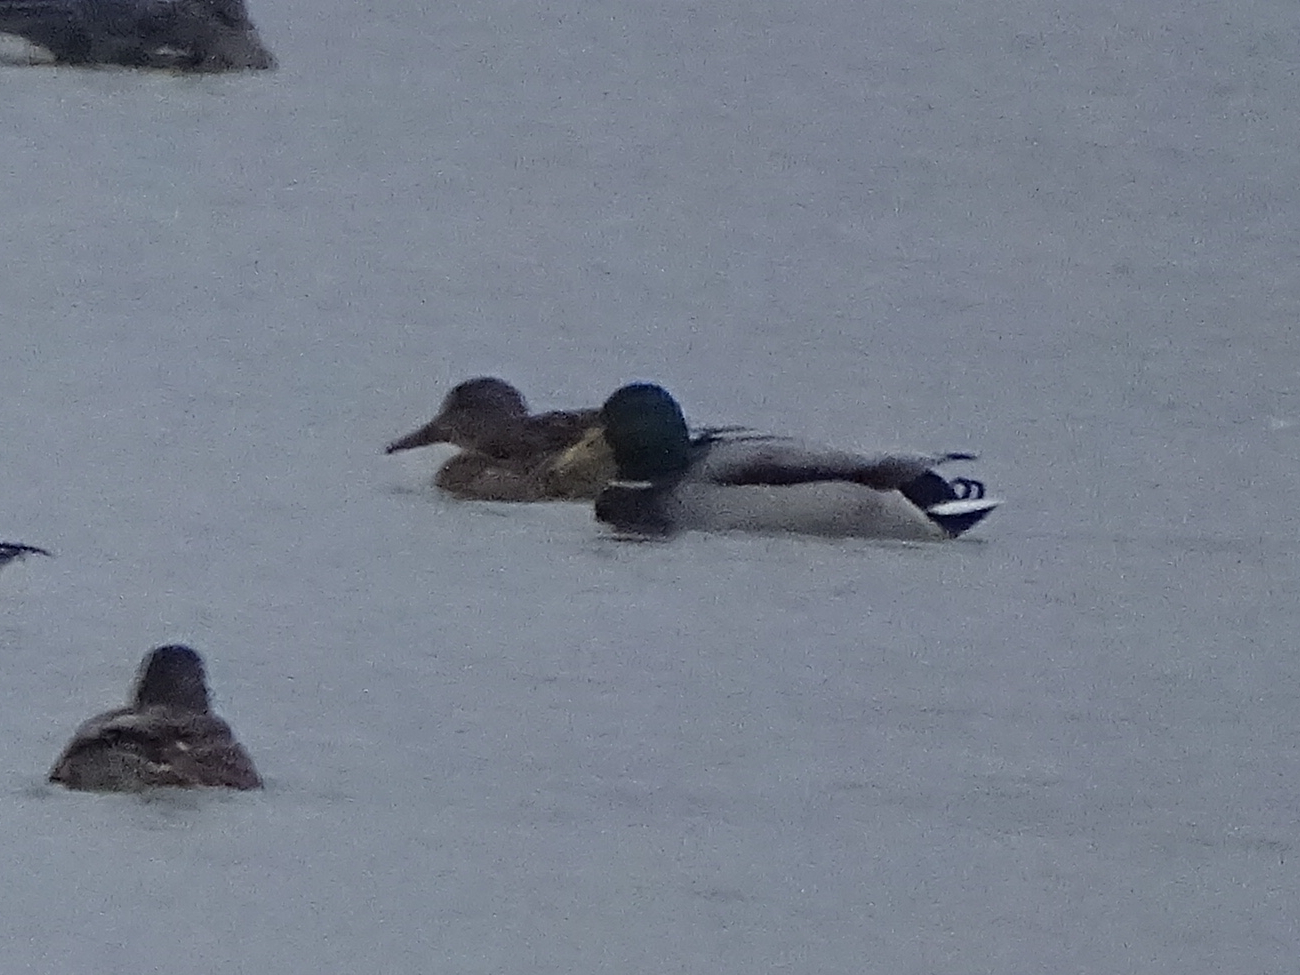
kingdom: Animalia
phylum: Chordata
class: Aves
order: Anseriformes
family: Anatidae
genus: Anas
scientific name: Anas platyrhynchos
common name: Mallard
